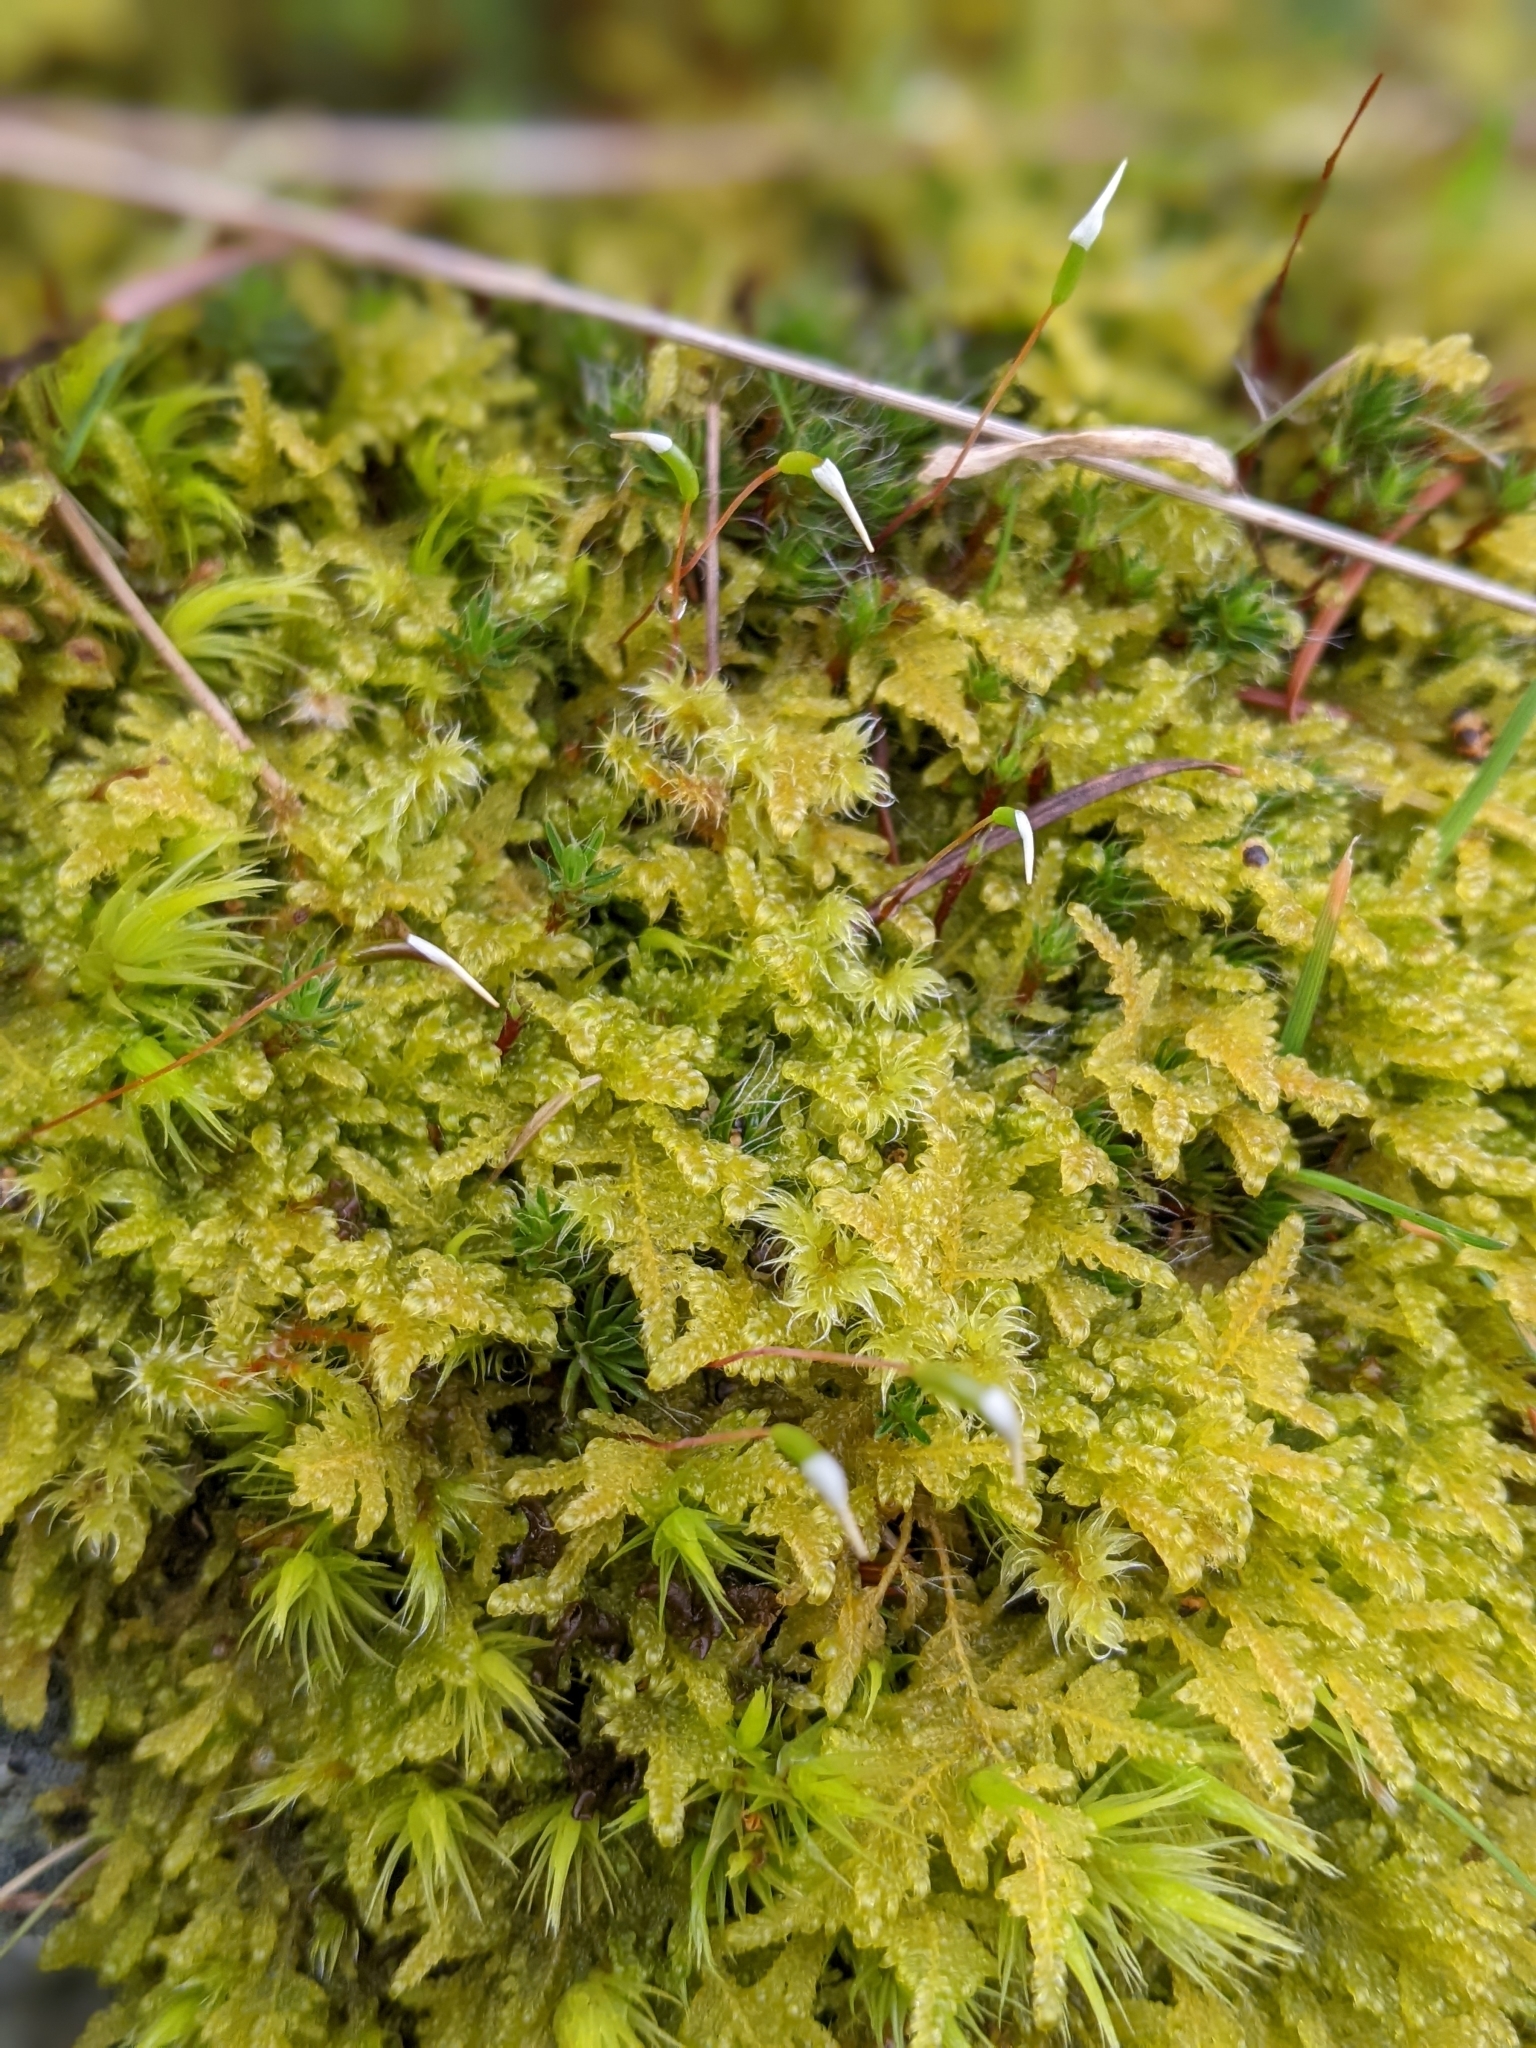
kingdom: Plantae
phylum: Bryophyta
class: Bryopsida
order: Hypnales
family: Stereodontaceae
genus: Stereodon
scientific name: Stereodon subimponens
